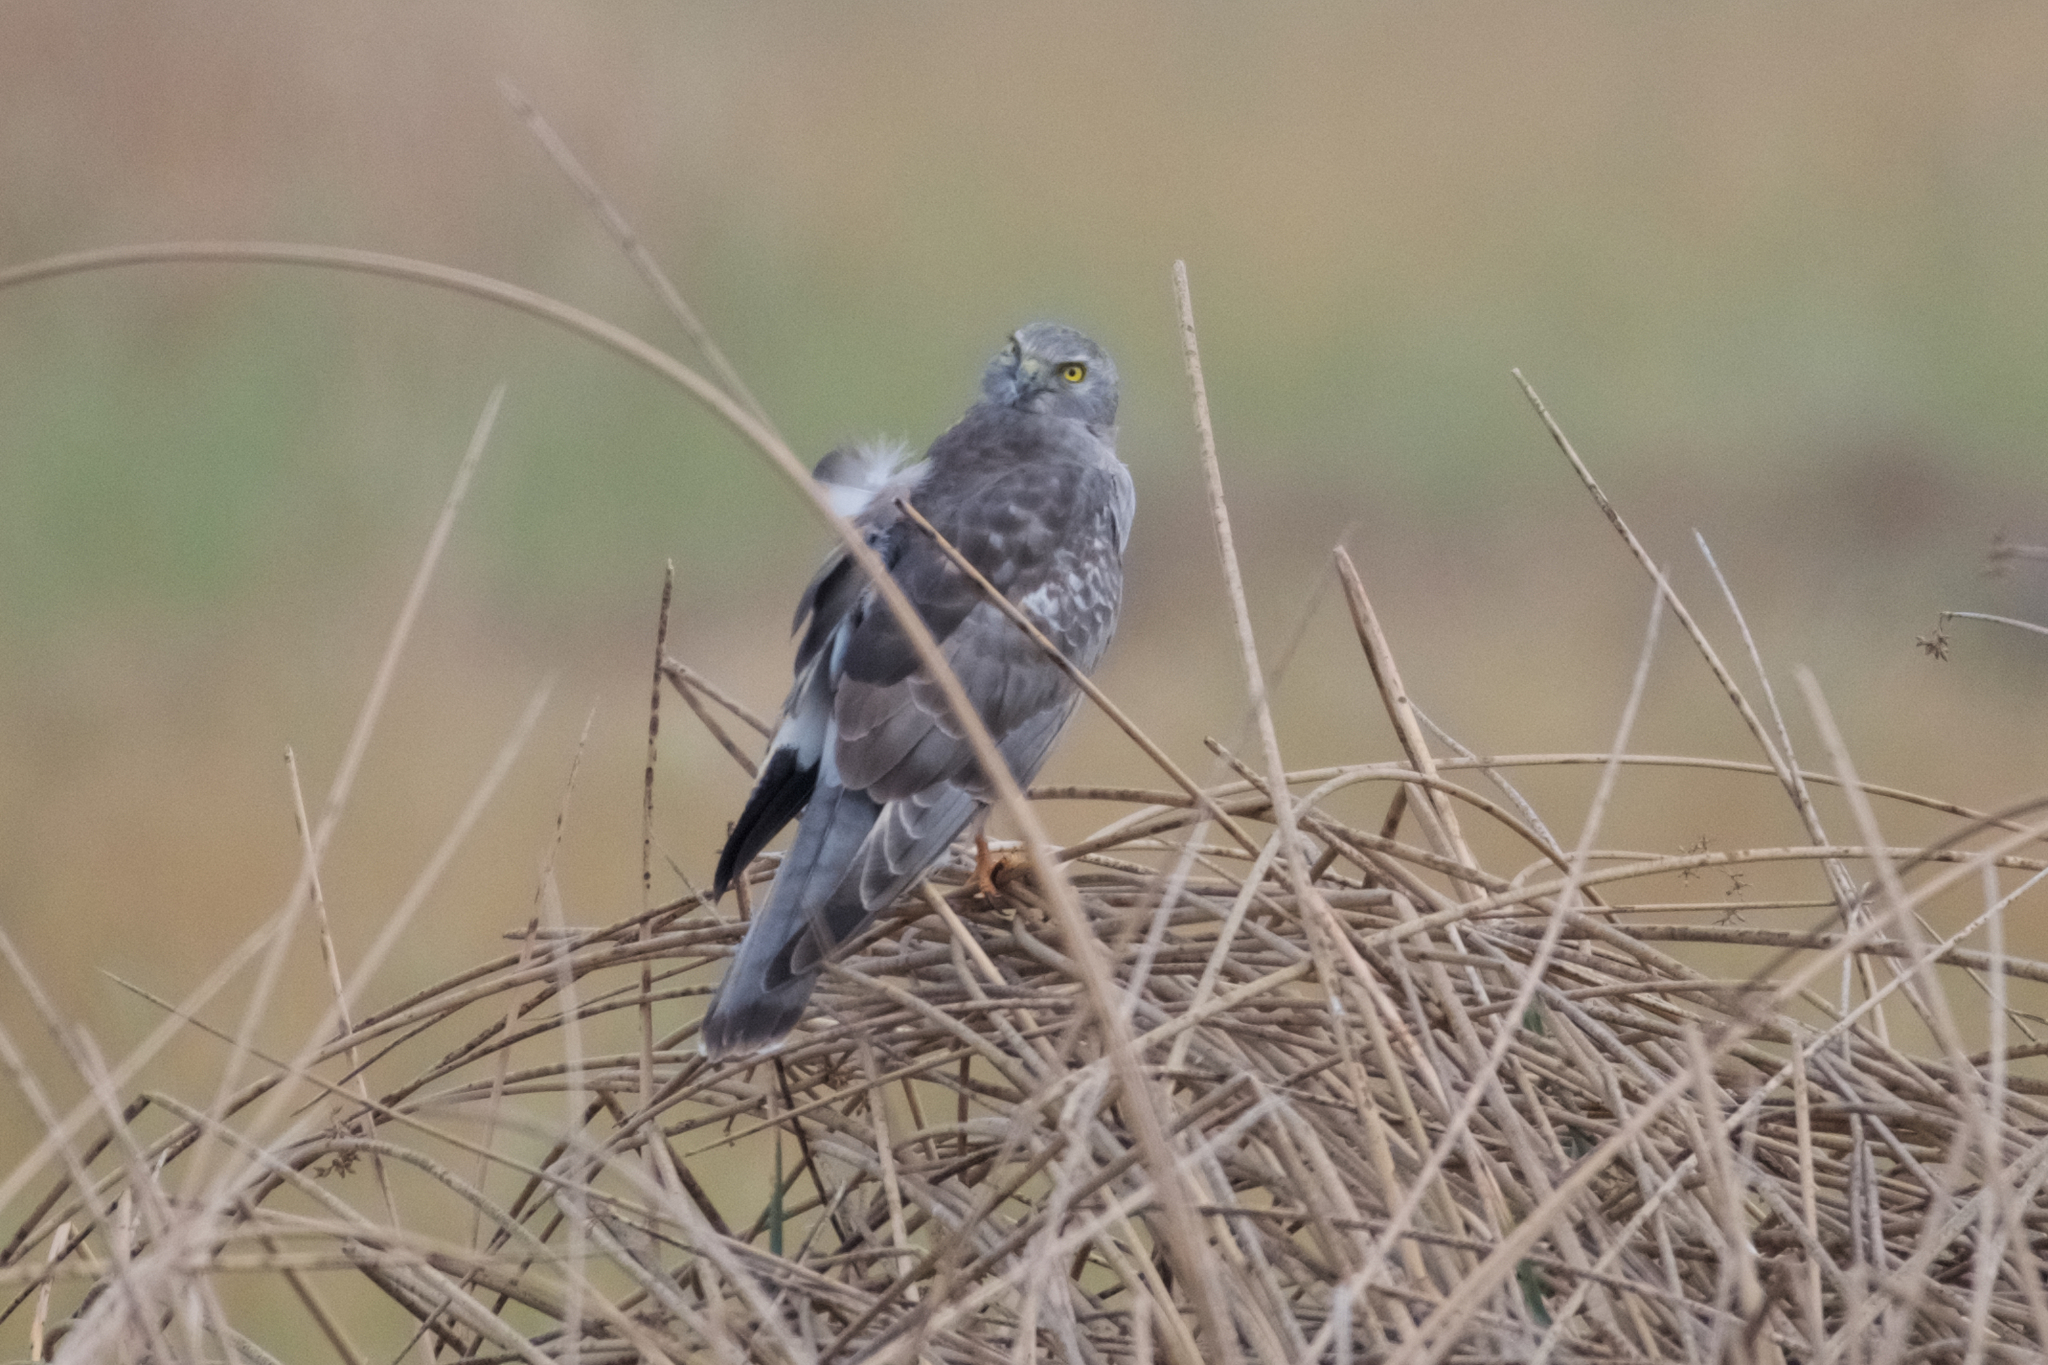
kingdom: Animalia
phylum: Chordata
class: Aves
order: Accipitriformes
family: Accipitridae
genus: Circus
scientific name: Circus cyaneus
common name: Hen harrier
